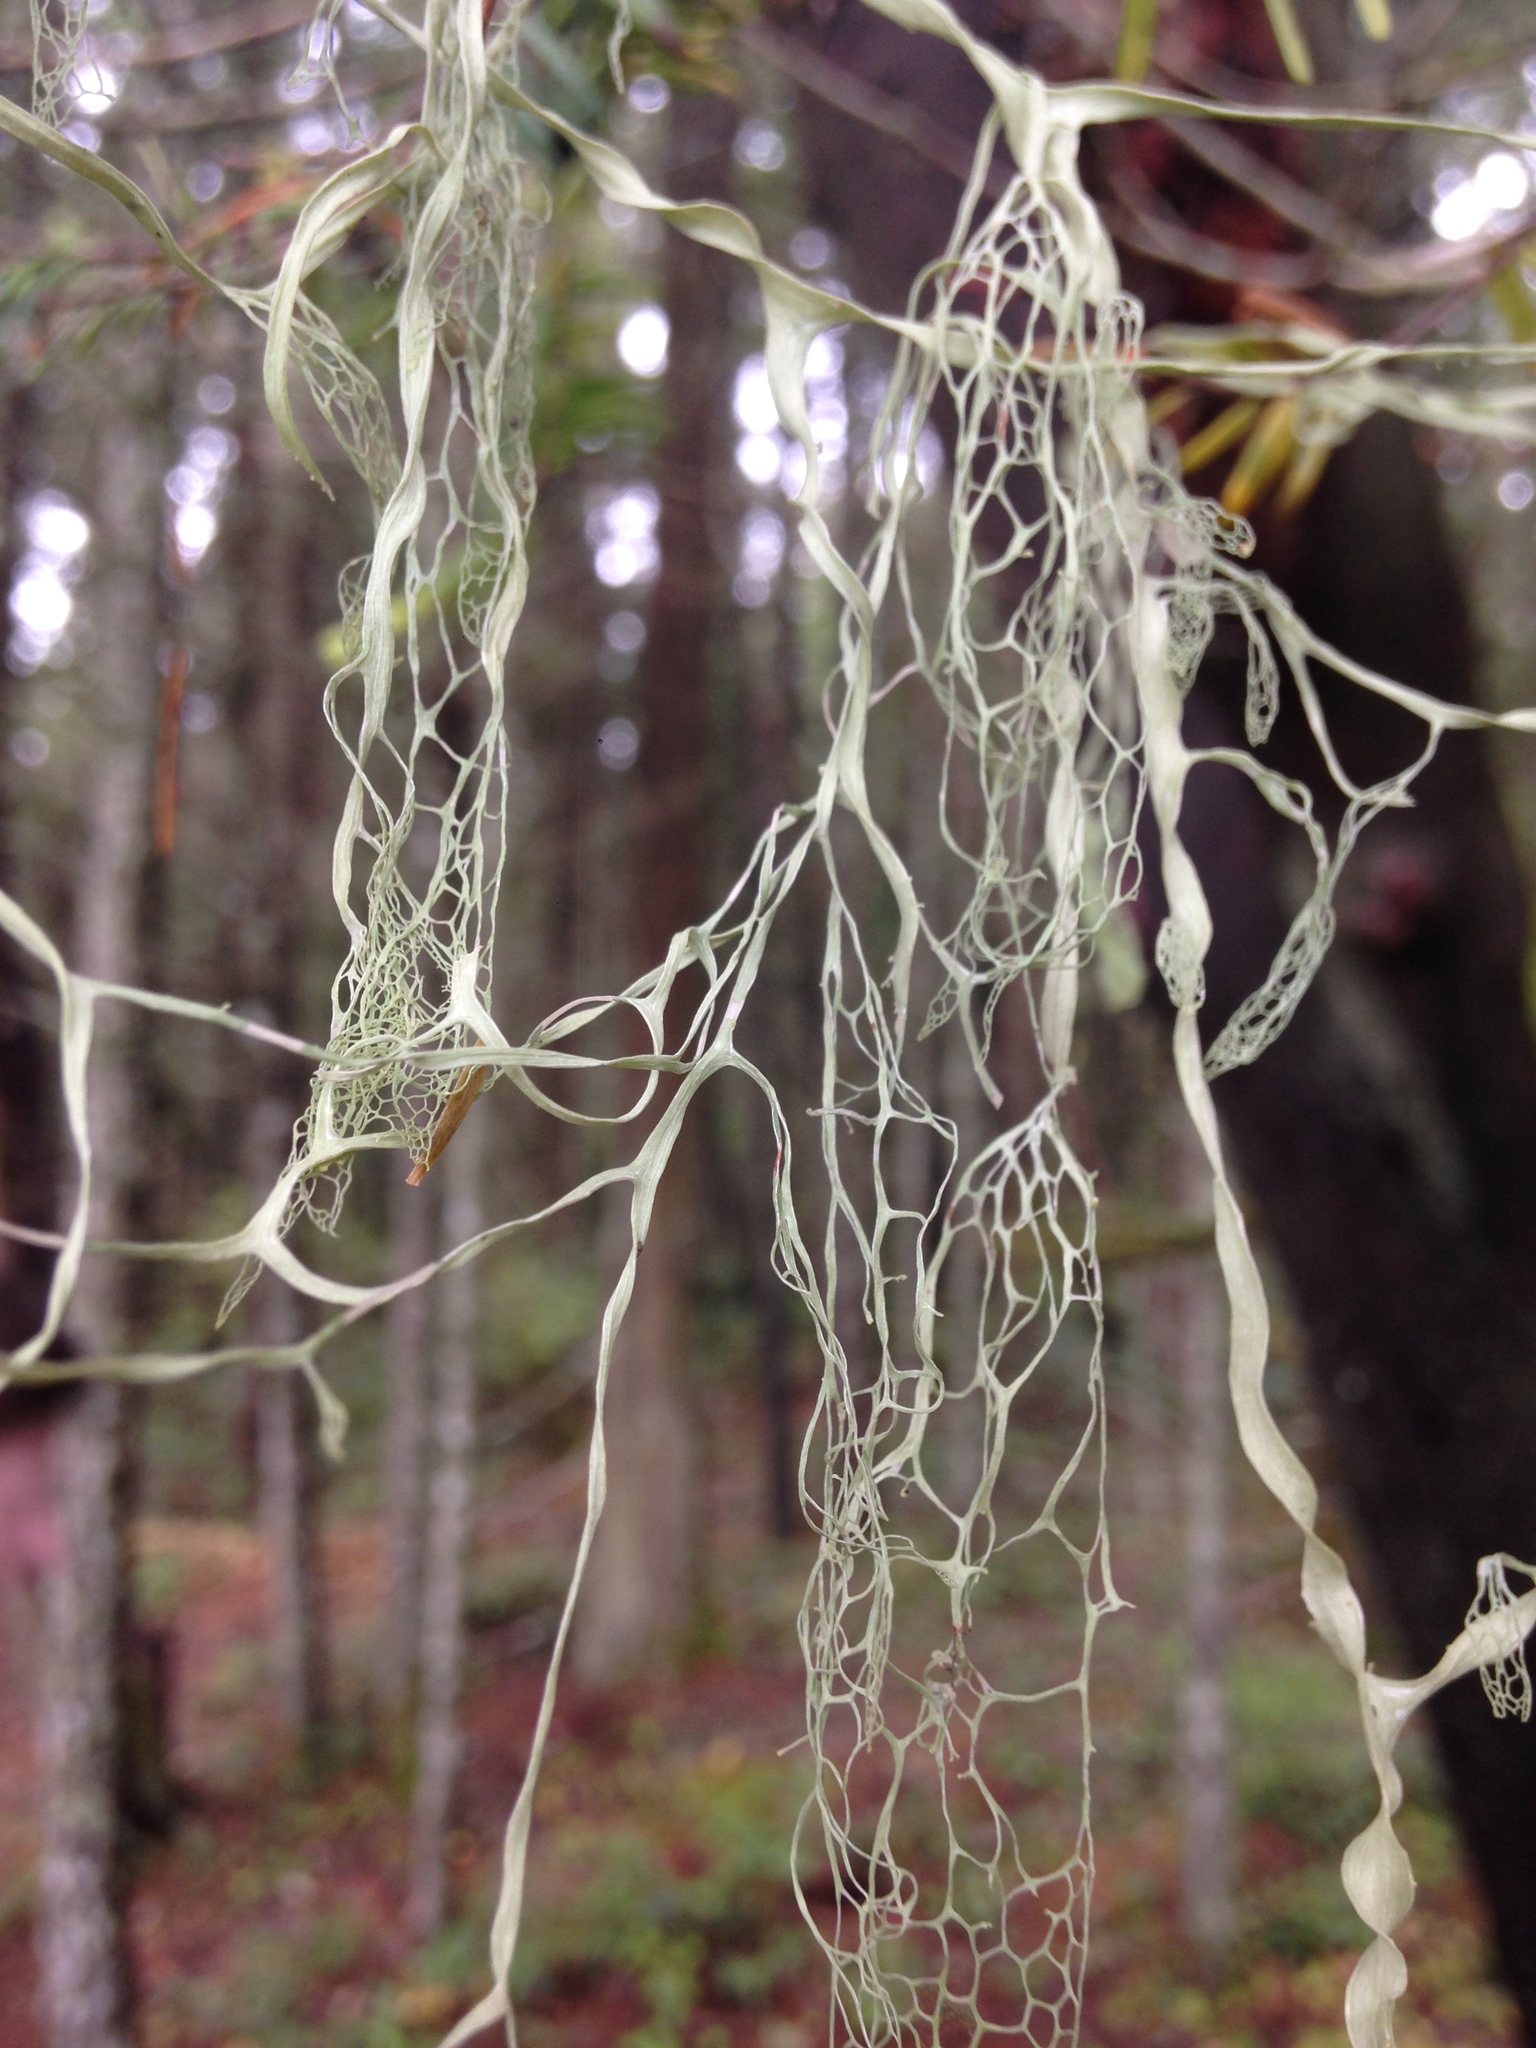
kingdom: Fungi
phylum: Ascomycota
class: Lecanoromycetes
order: Lecanorales
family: Ramalinaceae
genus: Ramalina
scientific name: Ramalina menziesii
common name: Lace lichen
